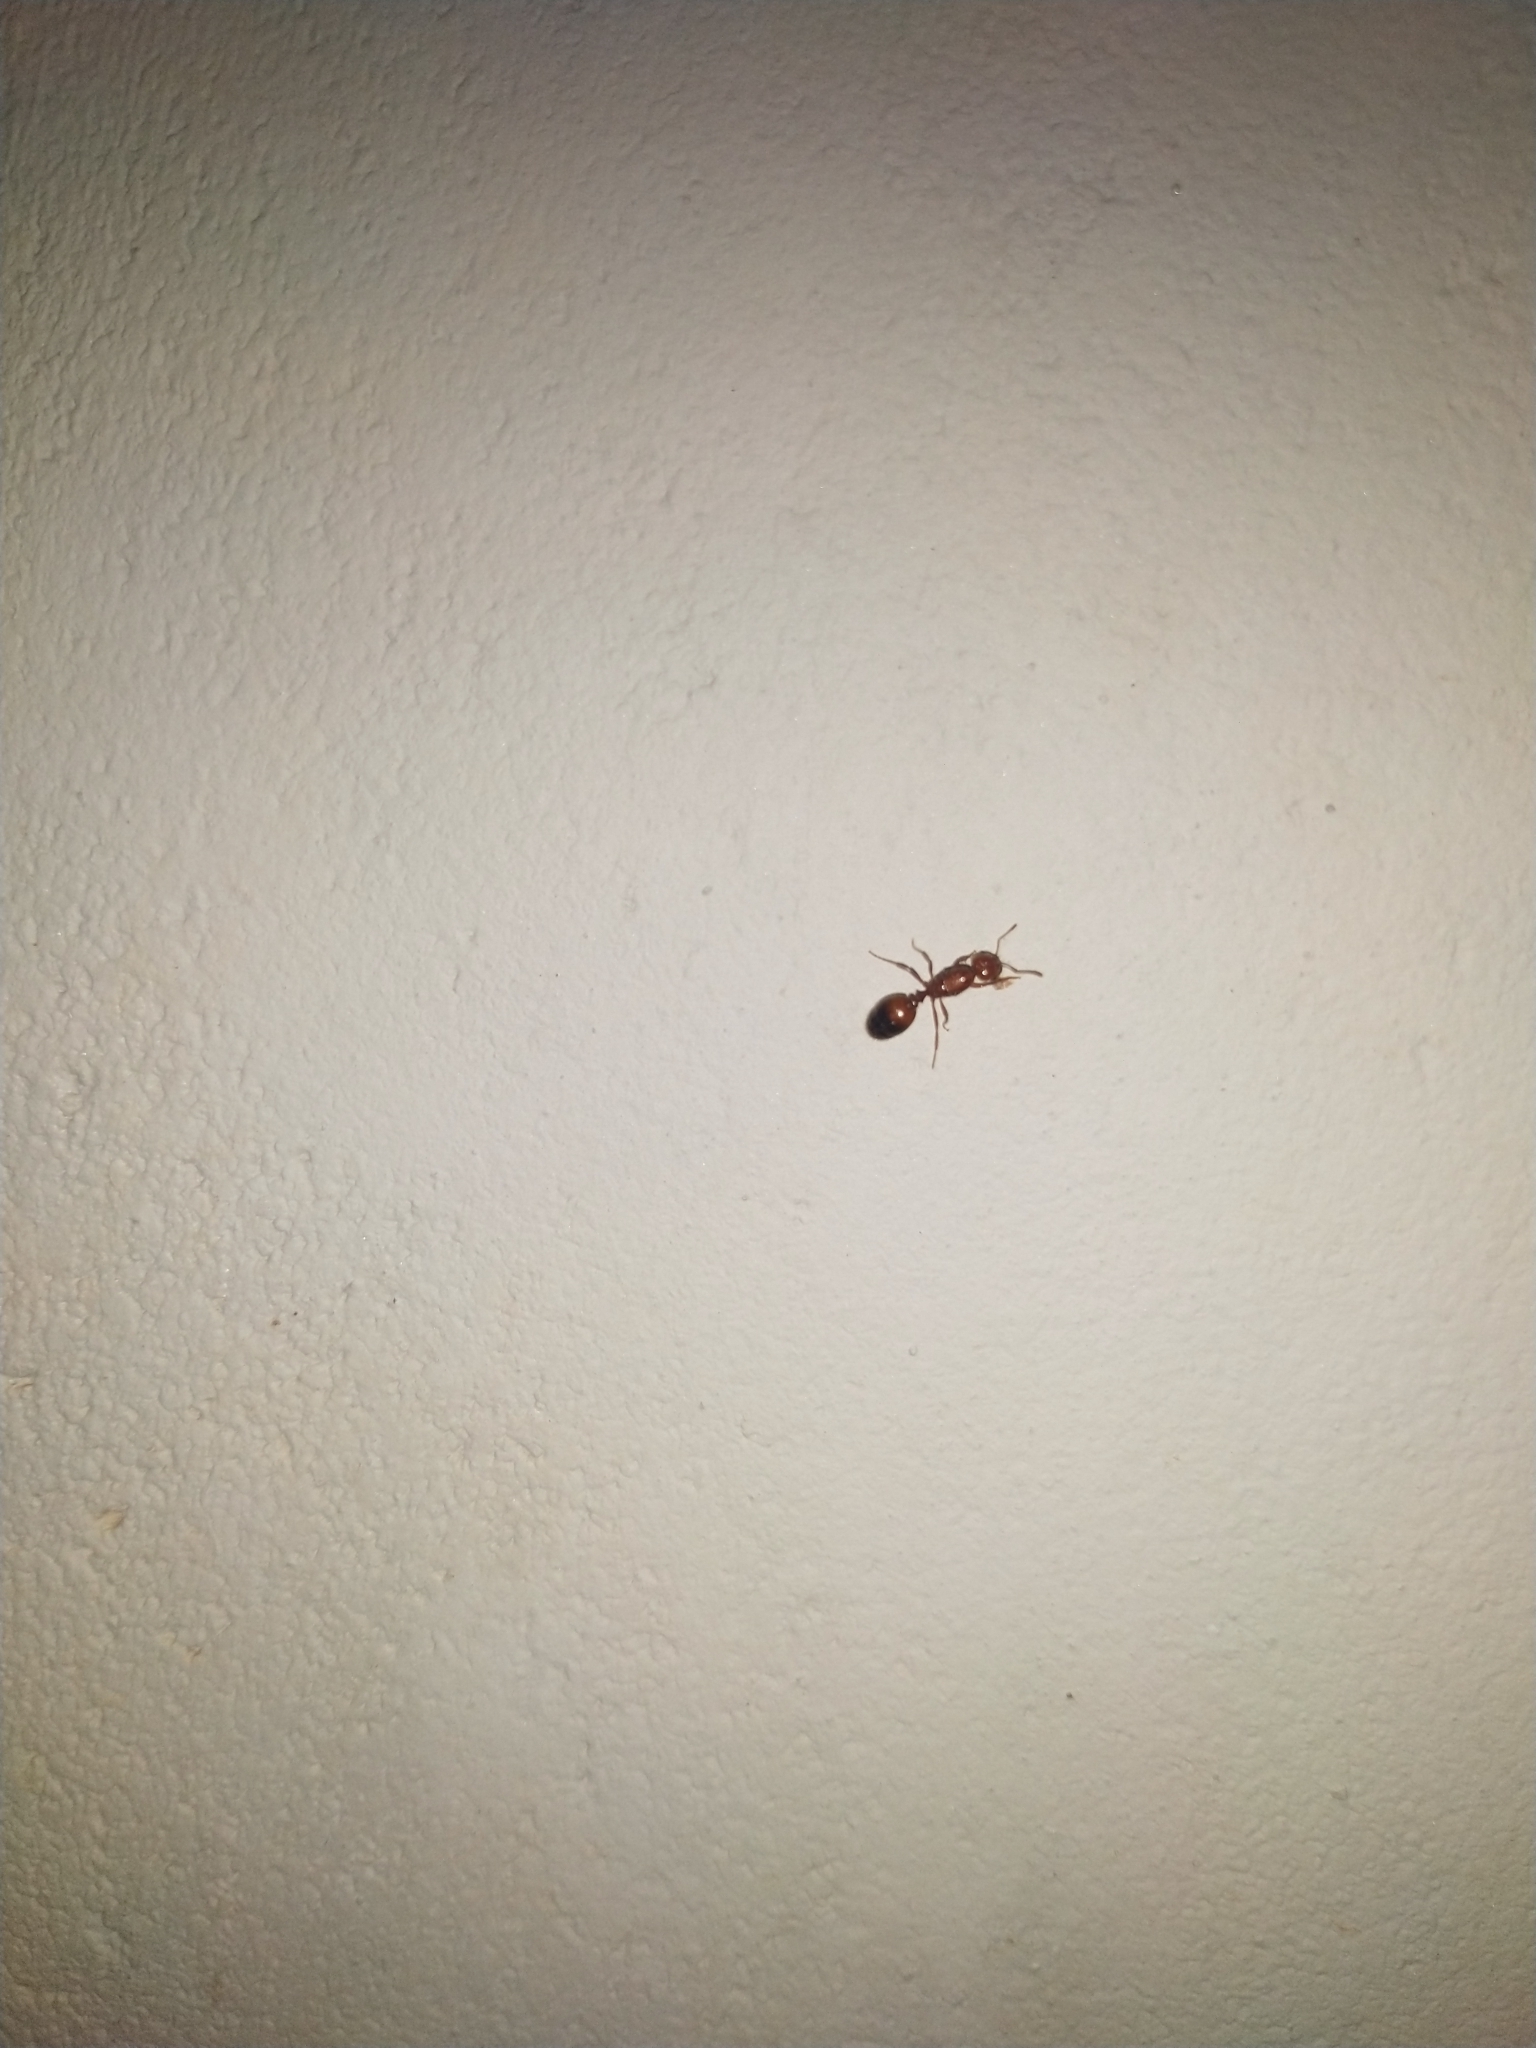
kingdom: Animalia
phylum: Arthropoda
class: Insecta
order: Hymenoptera
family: Formicidae
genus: Solenopsis
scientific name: Solenopsis geminata
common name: Tropical fire ant
